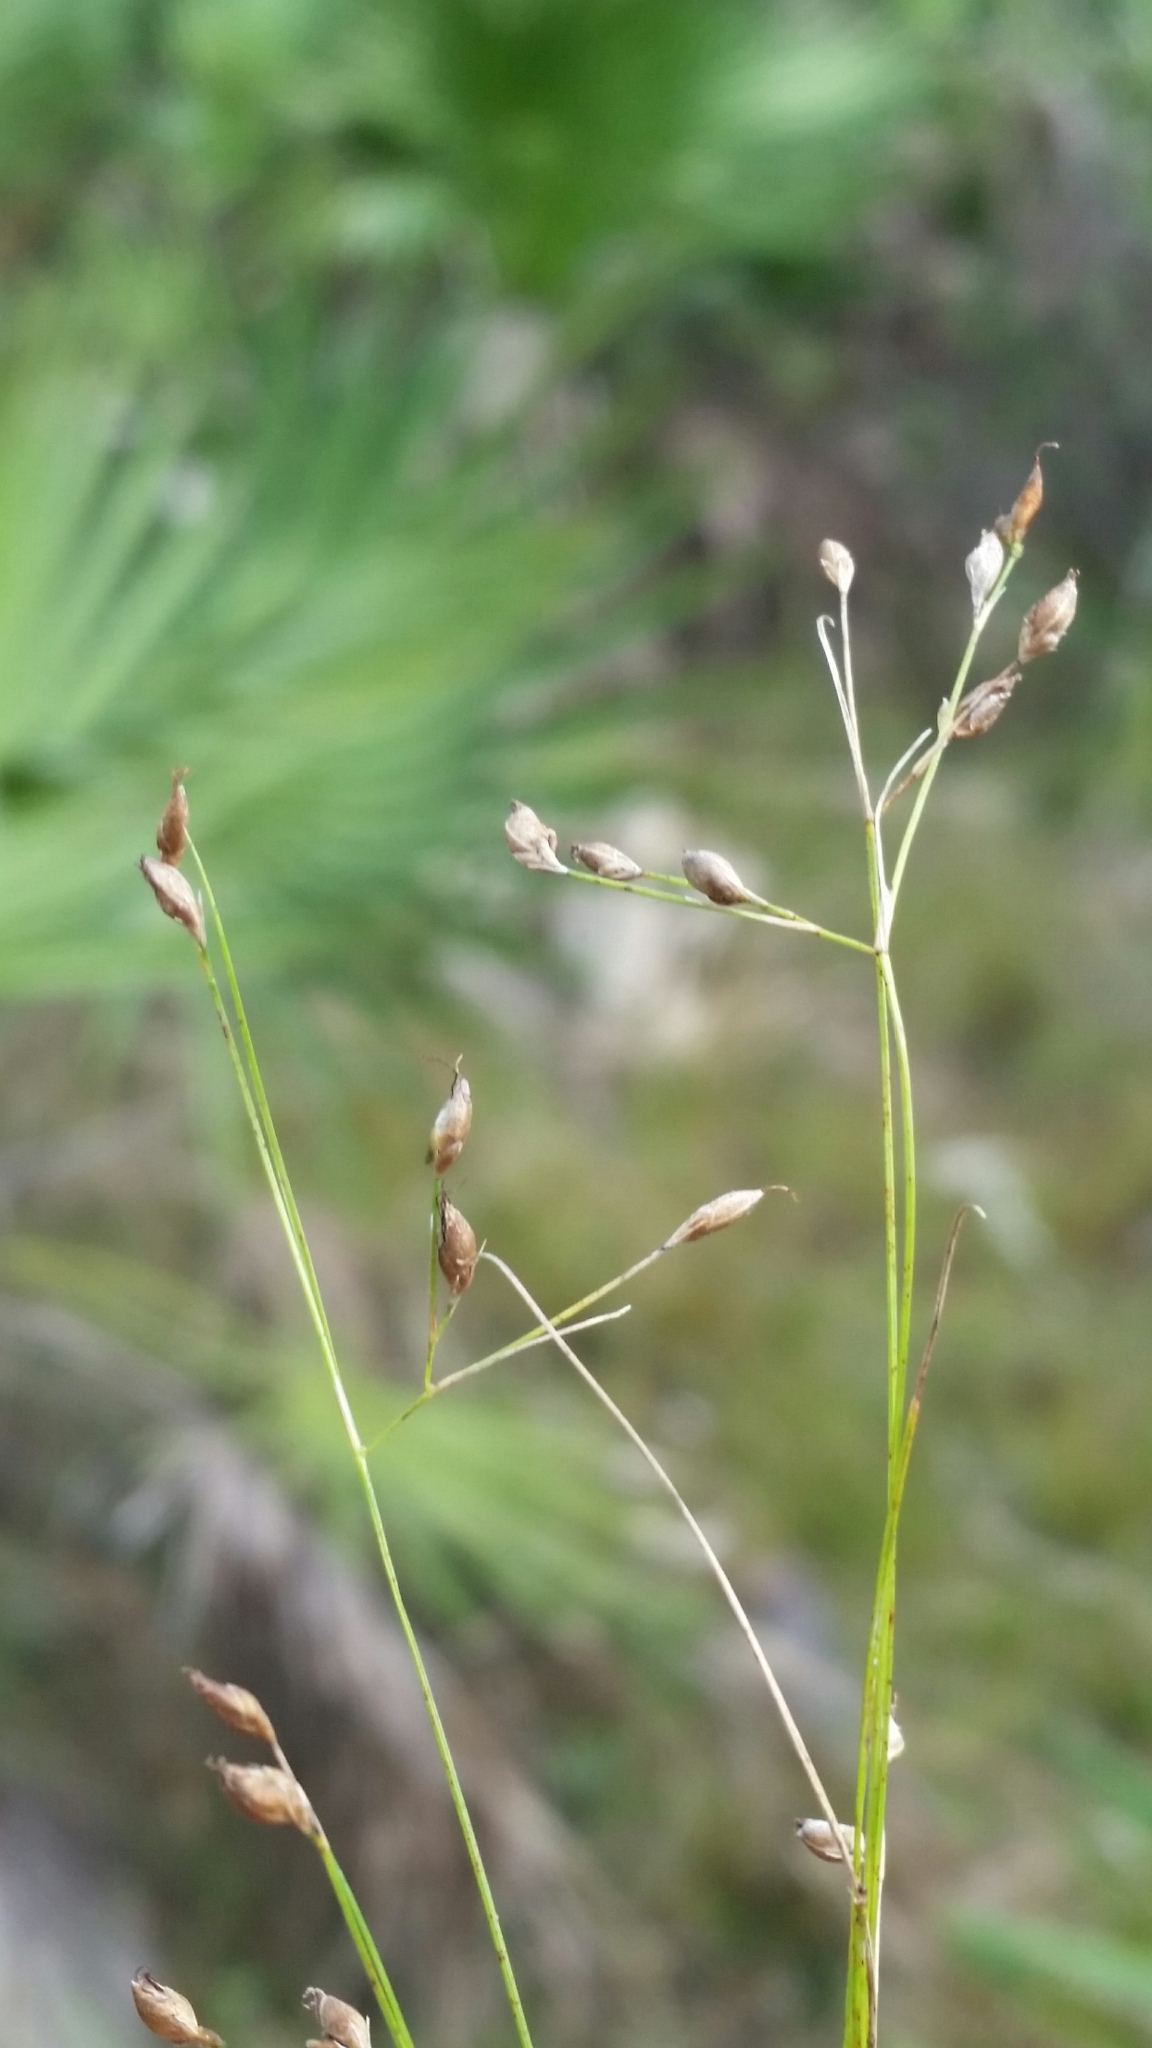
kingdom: Plantae
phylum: Tracheophyta
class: Liliopsida
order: Poales
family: Cyperaceae
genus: Rhynchospora
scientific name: Rhynchospora rariflora
